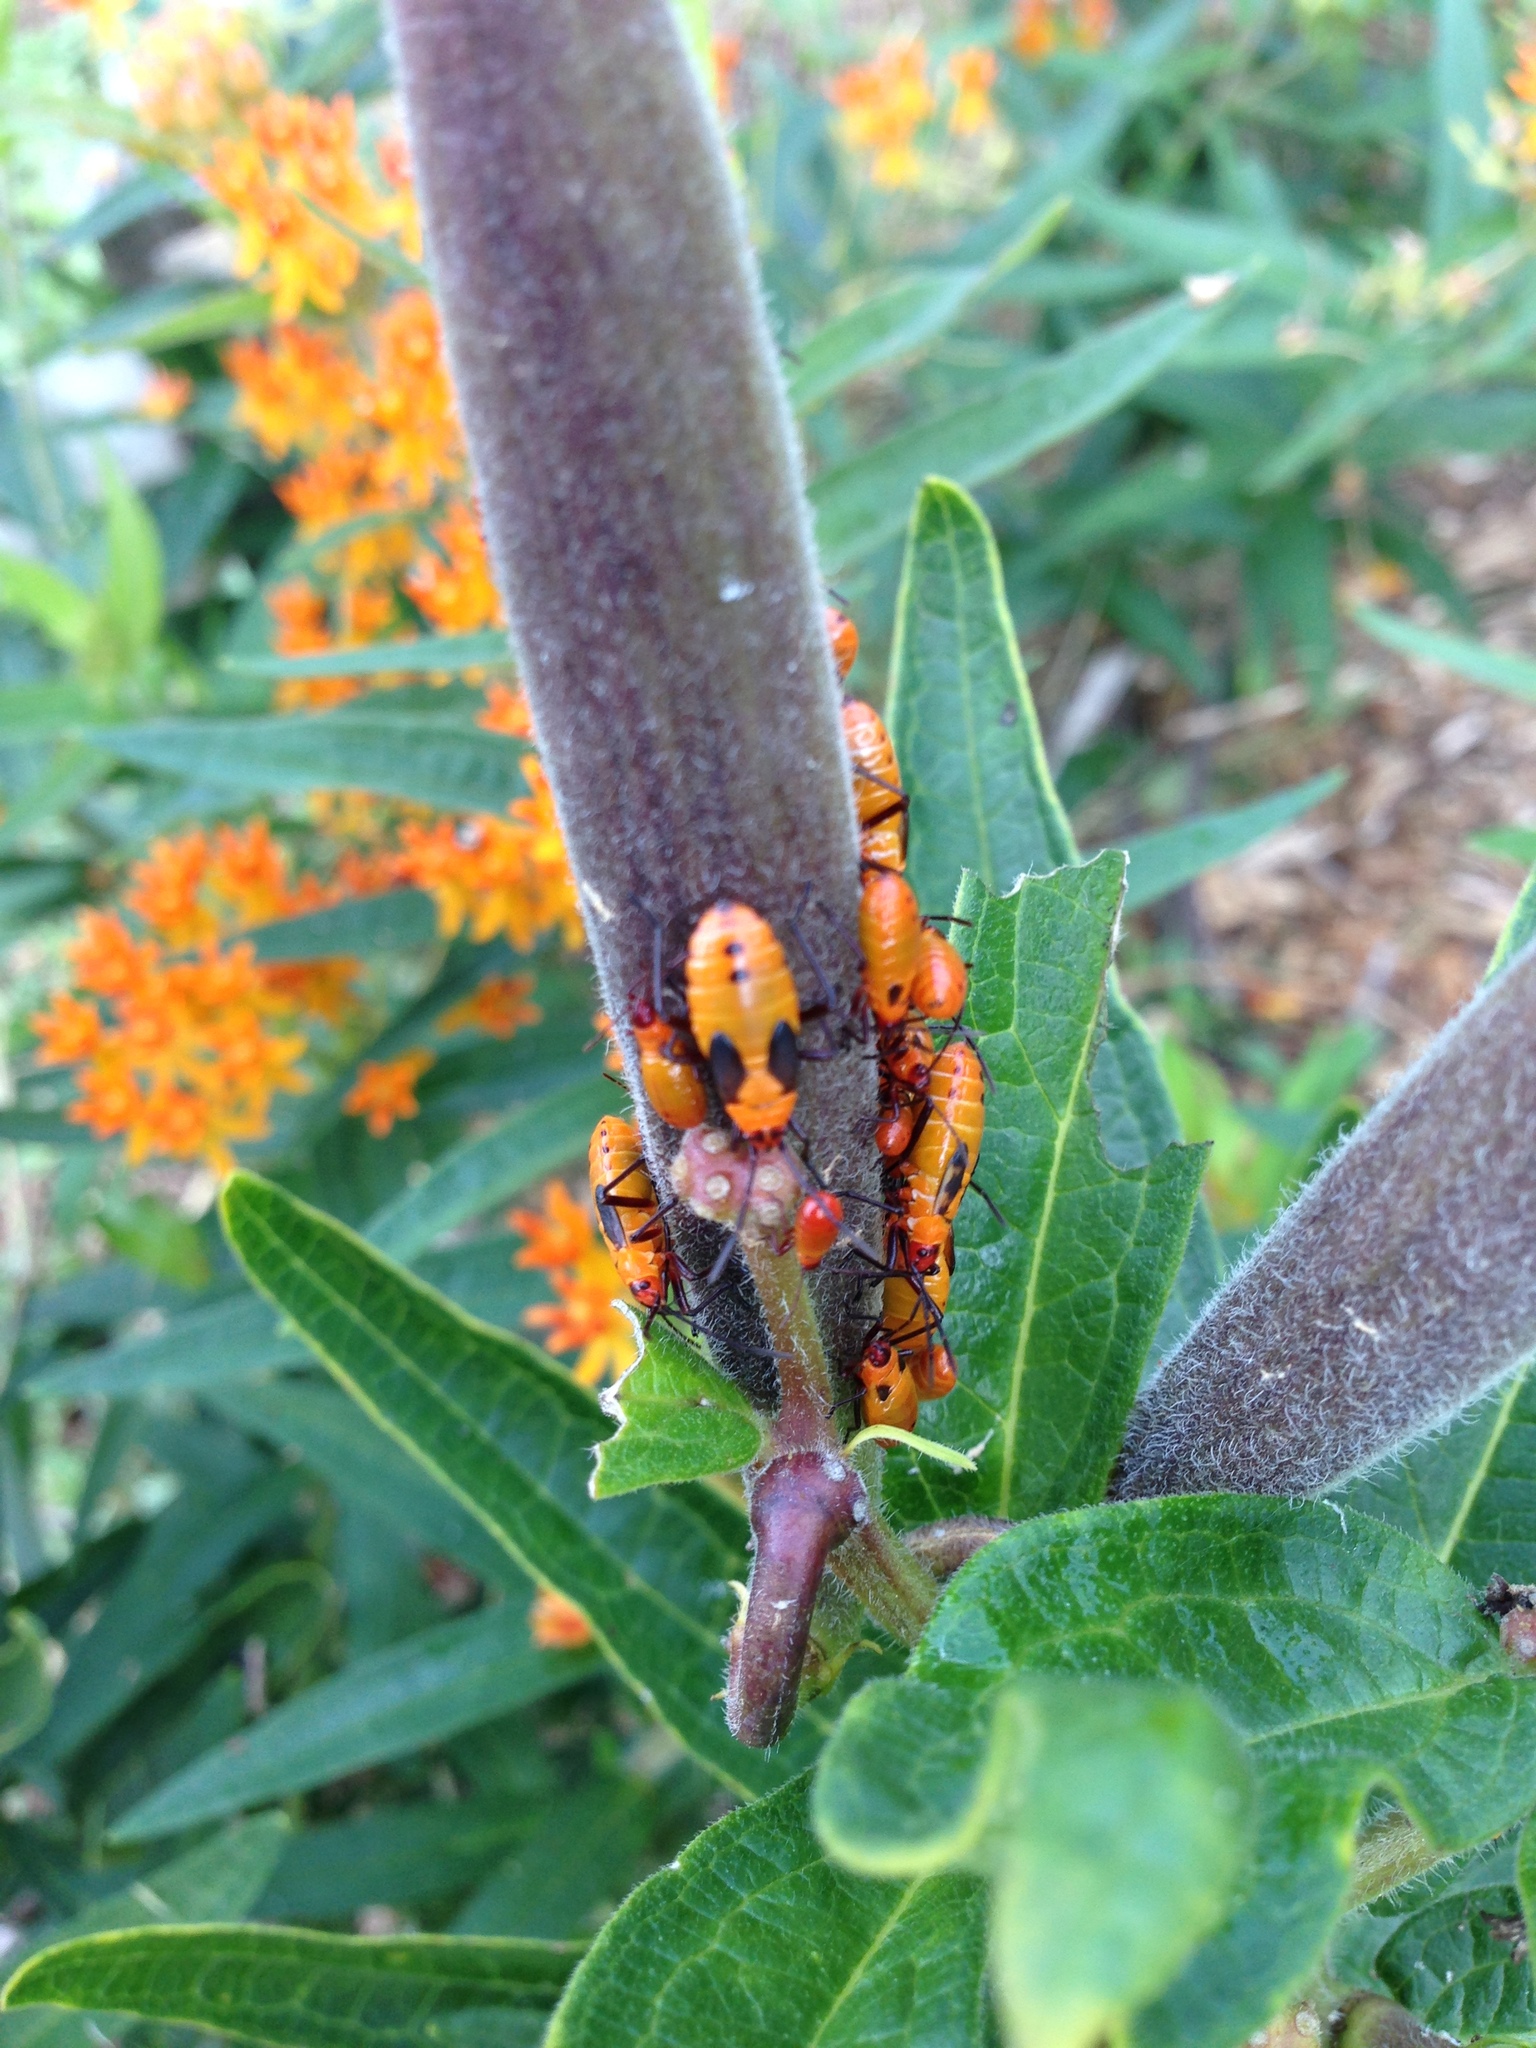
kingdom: Animalia
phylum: Arthropoda
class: Insecta
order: Hemiptera
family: Lygaeidae
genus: Oncopeltus
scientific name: Oncopeltus fasciatus
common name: Large milkweed bug
